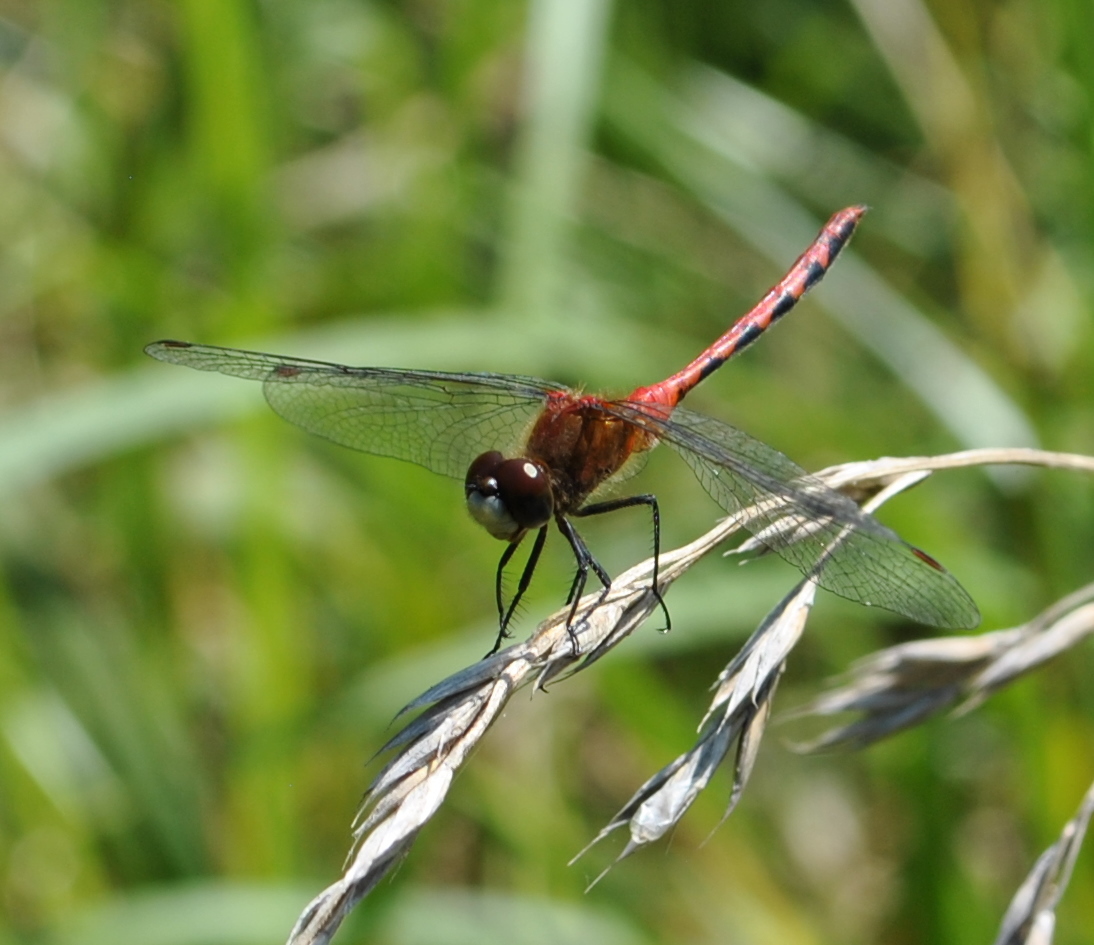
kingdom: Animalia
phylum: Arthropoda
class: Insecta
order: Odonata
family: Libellulidae
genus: Sympetrum
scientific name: Sympetrum obtrusum
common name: White-faced meadowhawk
